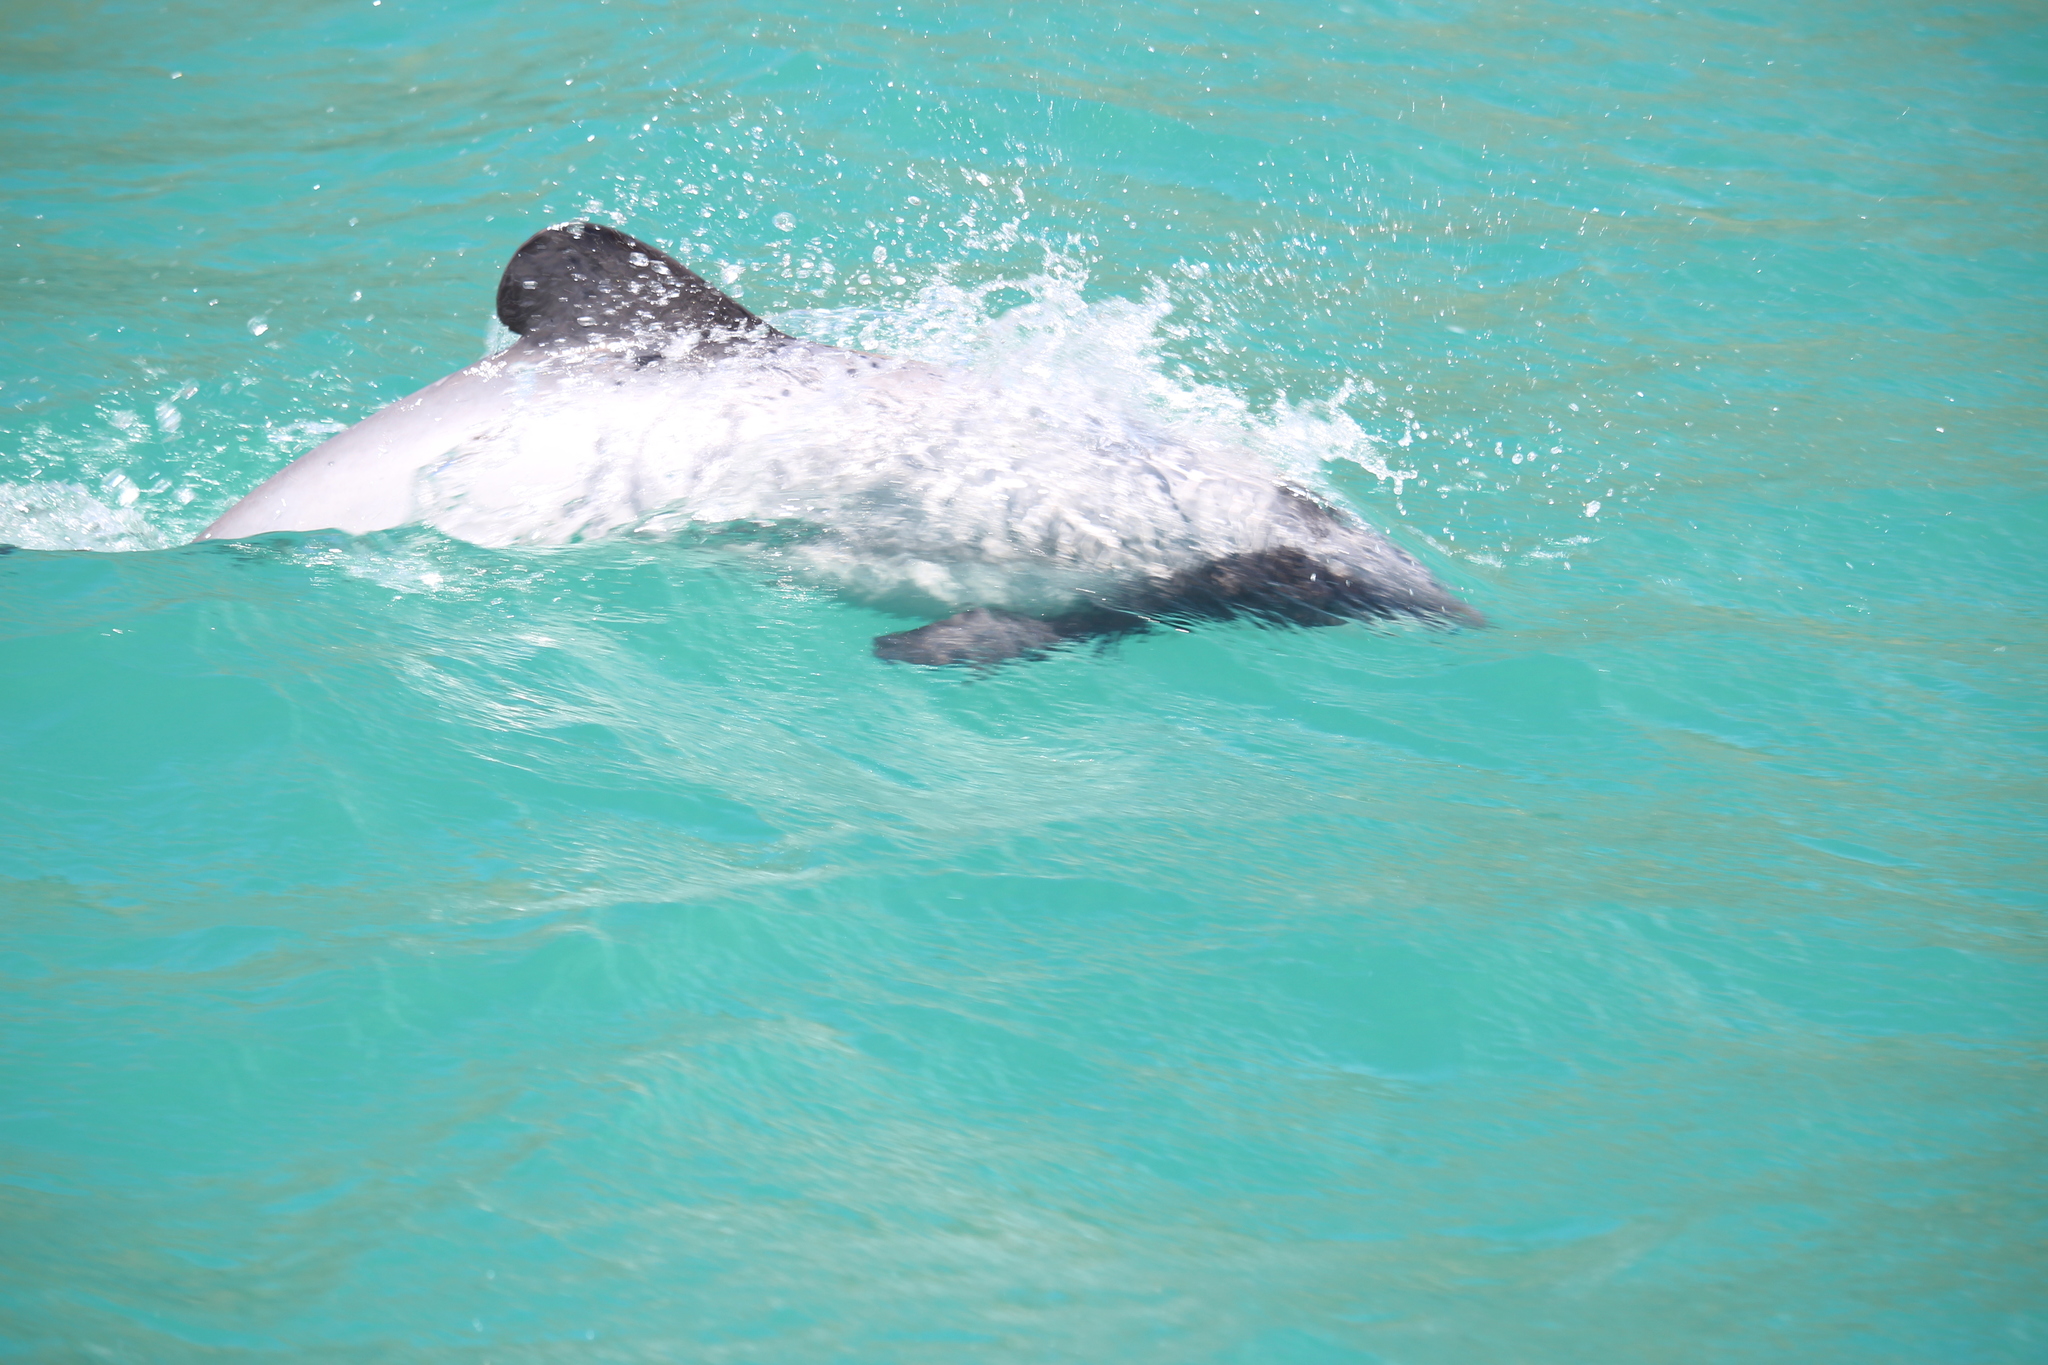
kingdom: Animalia
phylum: Chordata
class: Mammalia
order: Cetacea
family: Delphinidae
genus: Cephalorhynchus
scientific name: Cephalorhynchus hectori
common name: Hector's dolphin
